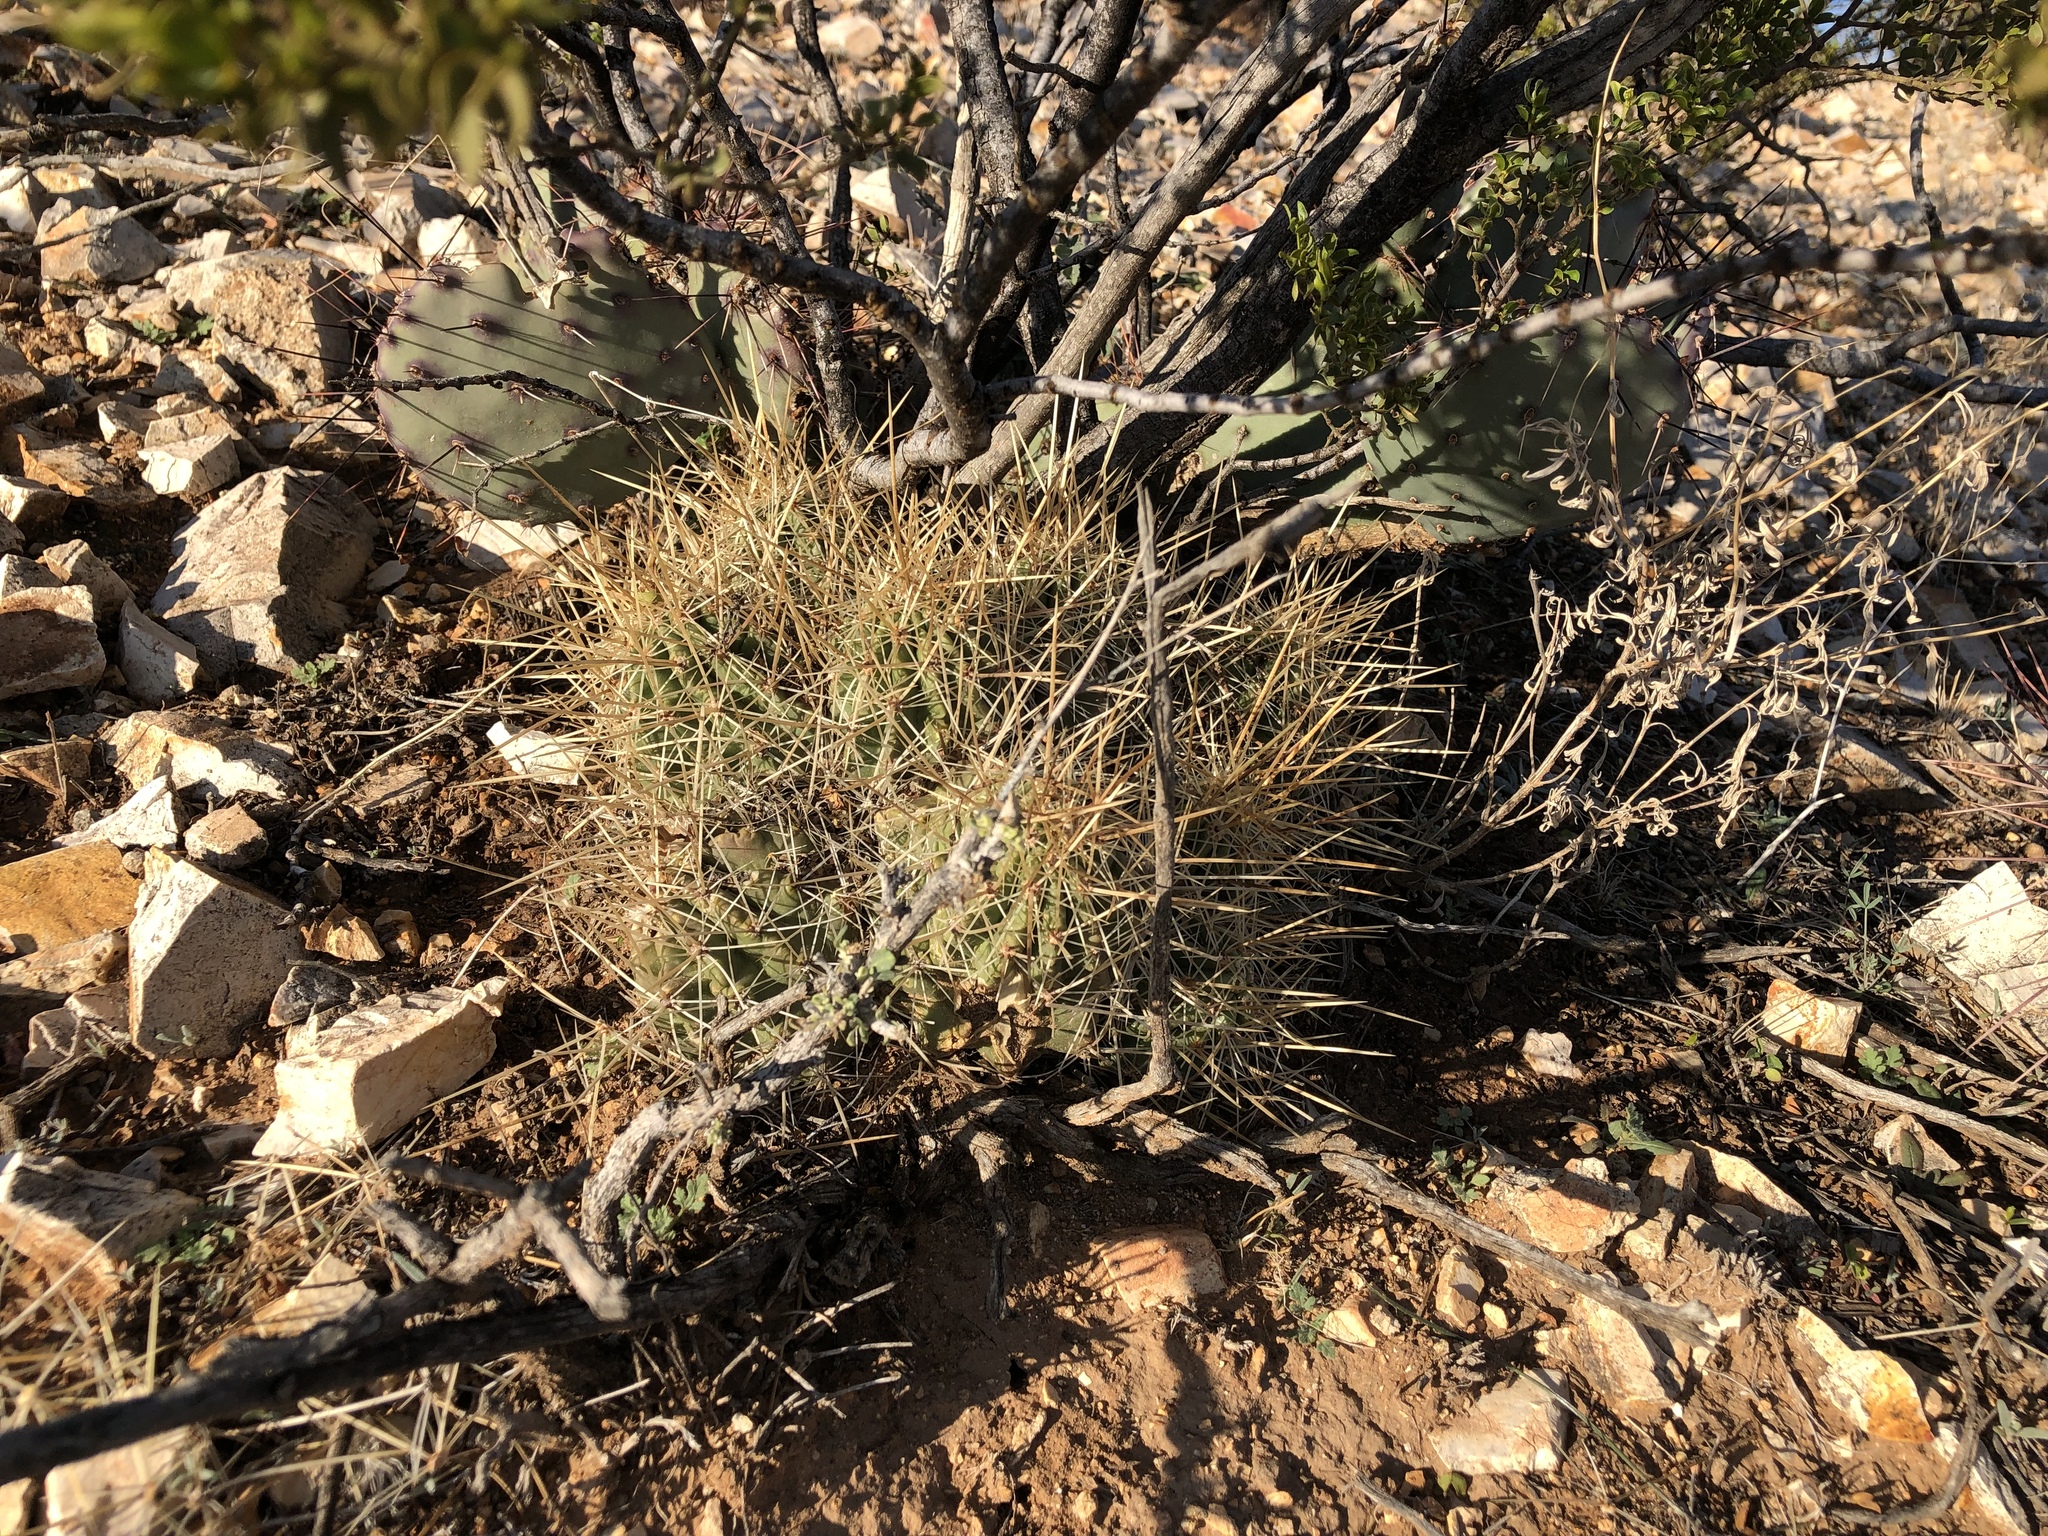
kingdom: Plantae
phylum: Tracheophyta
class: Magnoliopsida
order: Caryophyllales
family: Cactaceae
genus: Echinocereus
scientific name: Echinocereus stramineus
